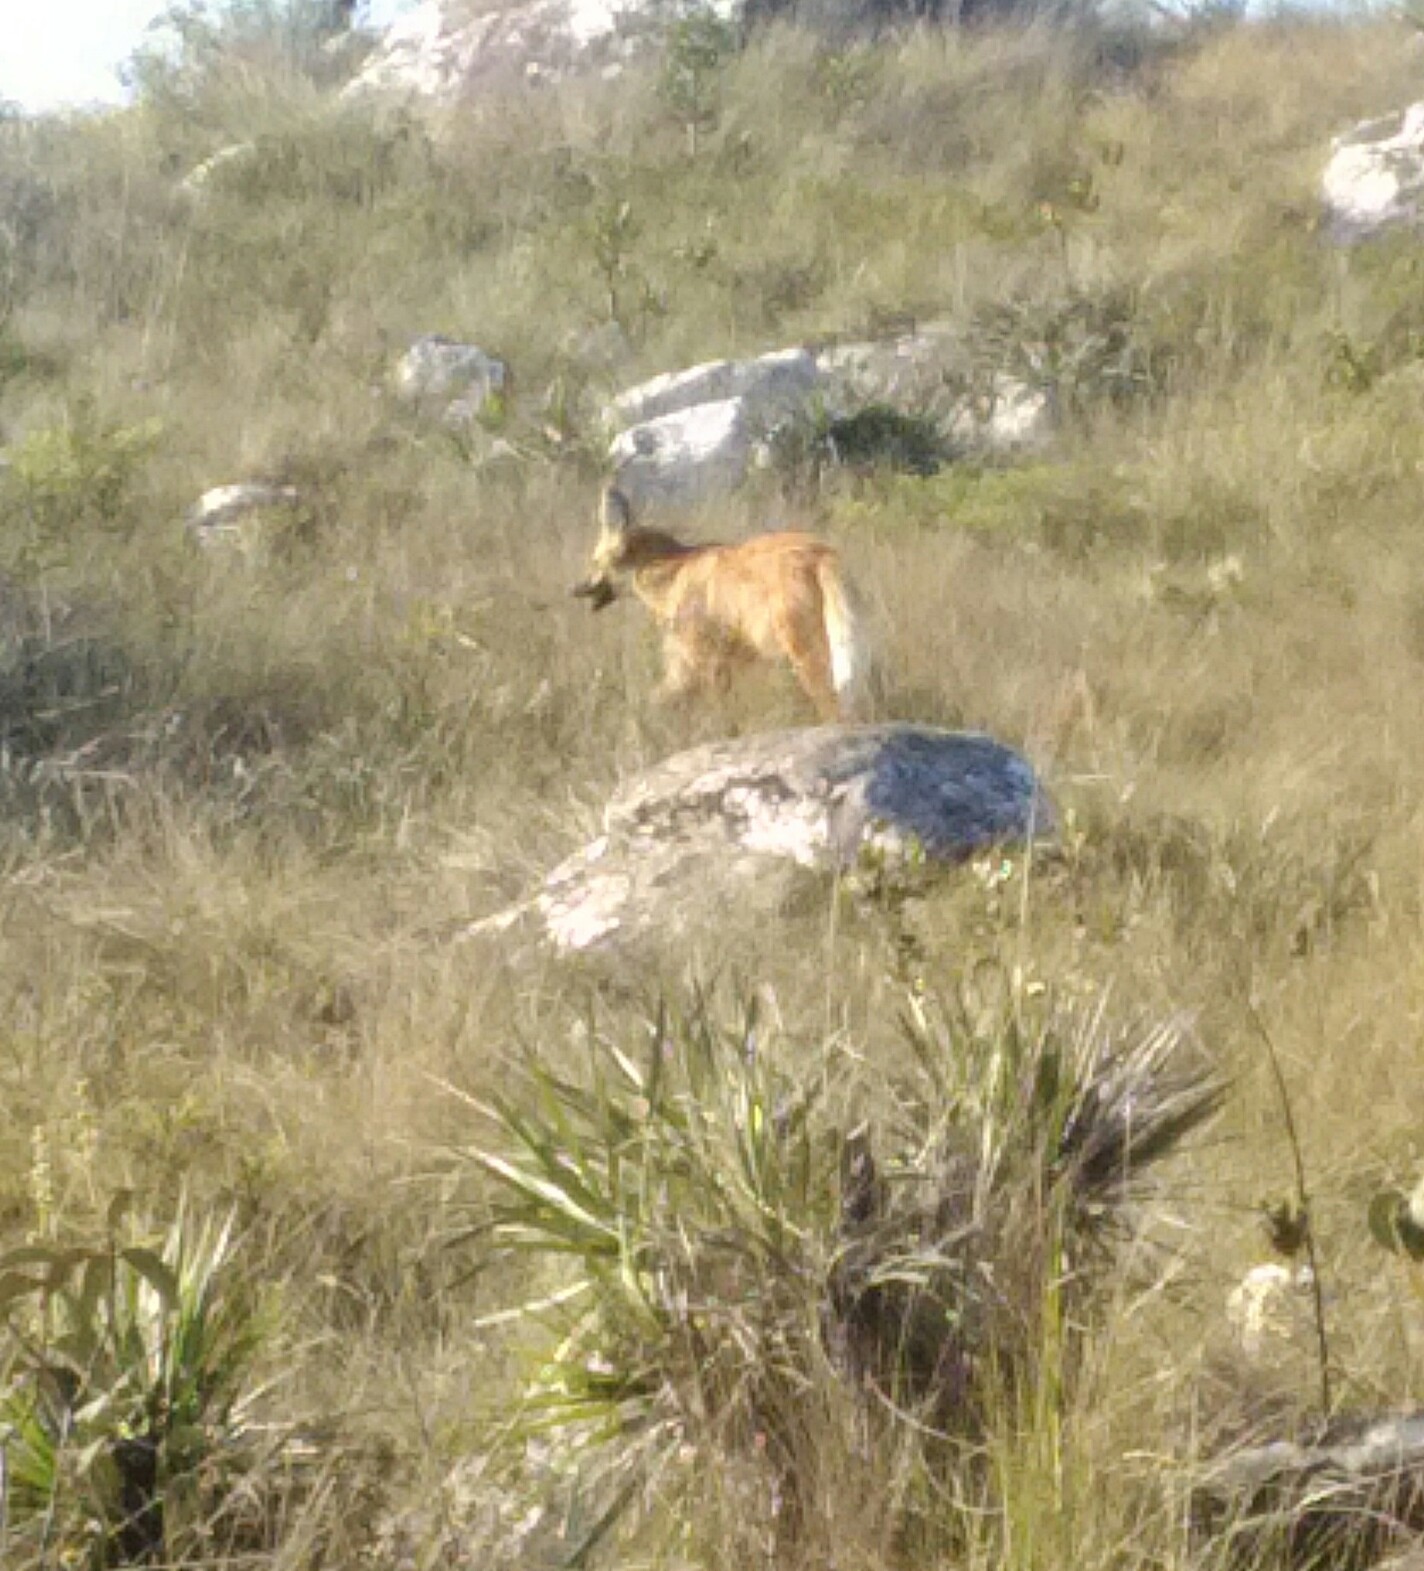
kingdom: Animalia
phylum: Chordata
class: Mammalia
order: Carnivora
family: Canidae
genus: Chrysocyon
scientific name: Chrysocyon brachyurus
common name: Maned wolf
